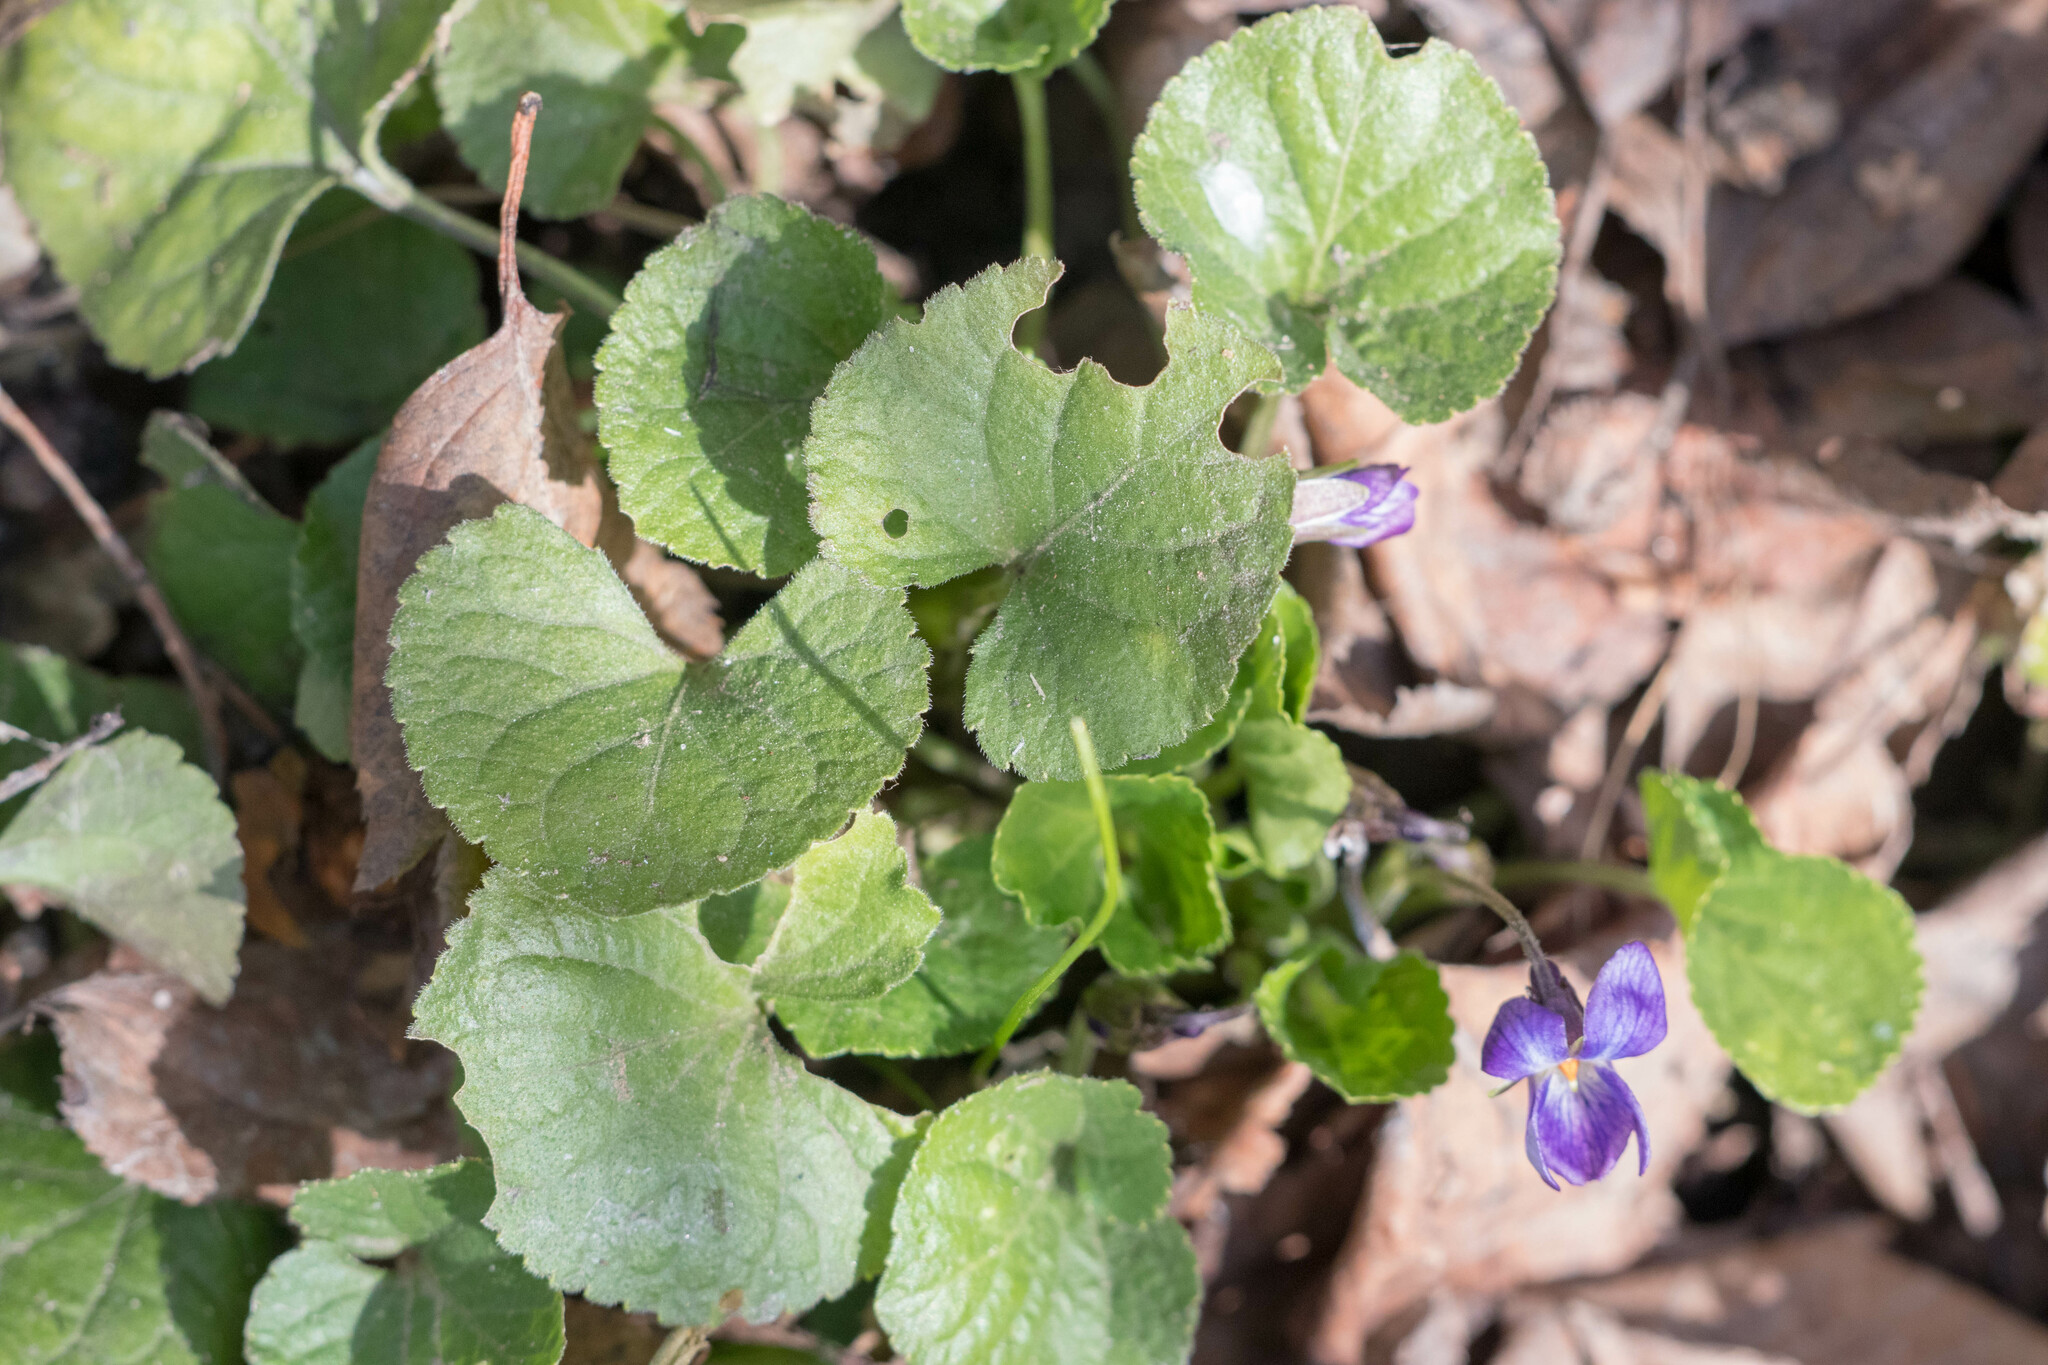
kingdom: Plantae
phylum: Tracheophyta
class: Magnoliopsida
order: Malpighiales
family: Violaceae
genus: Viola
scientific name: Viola odorata
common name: Sweet violet
